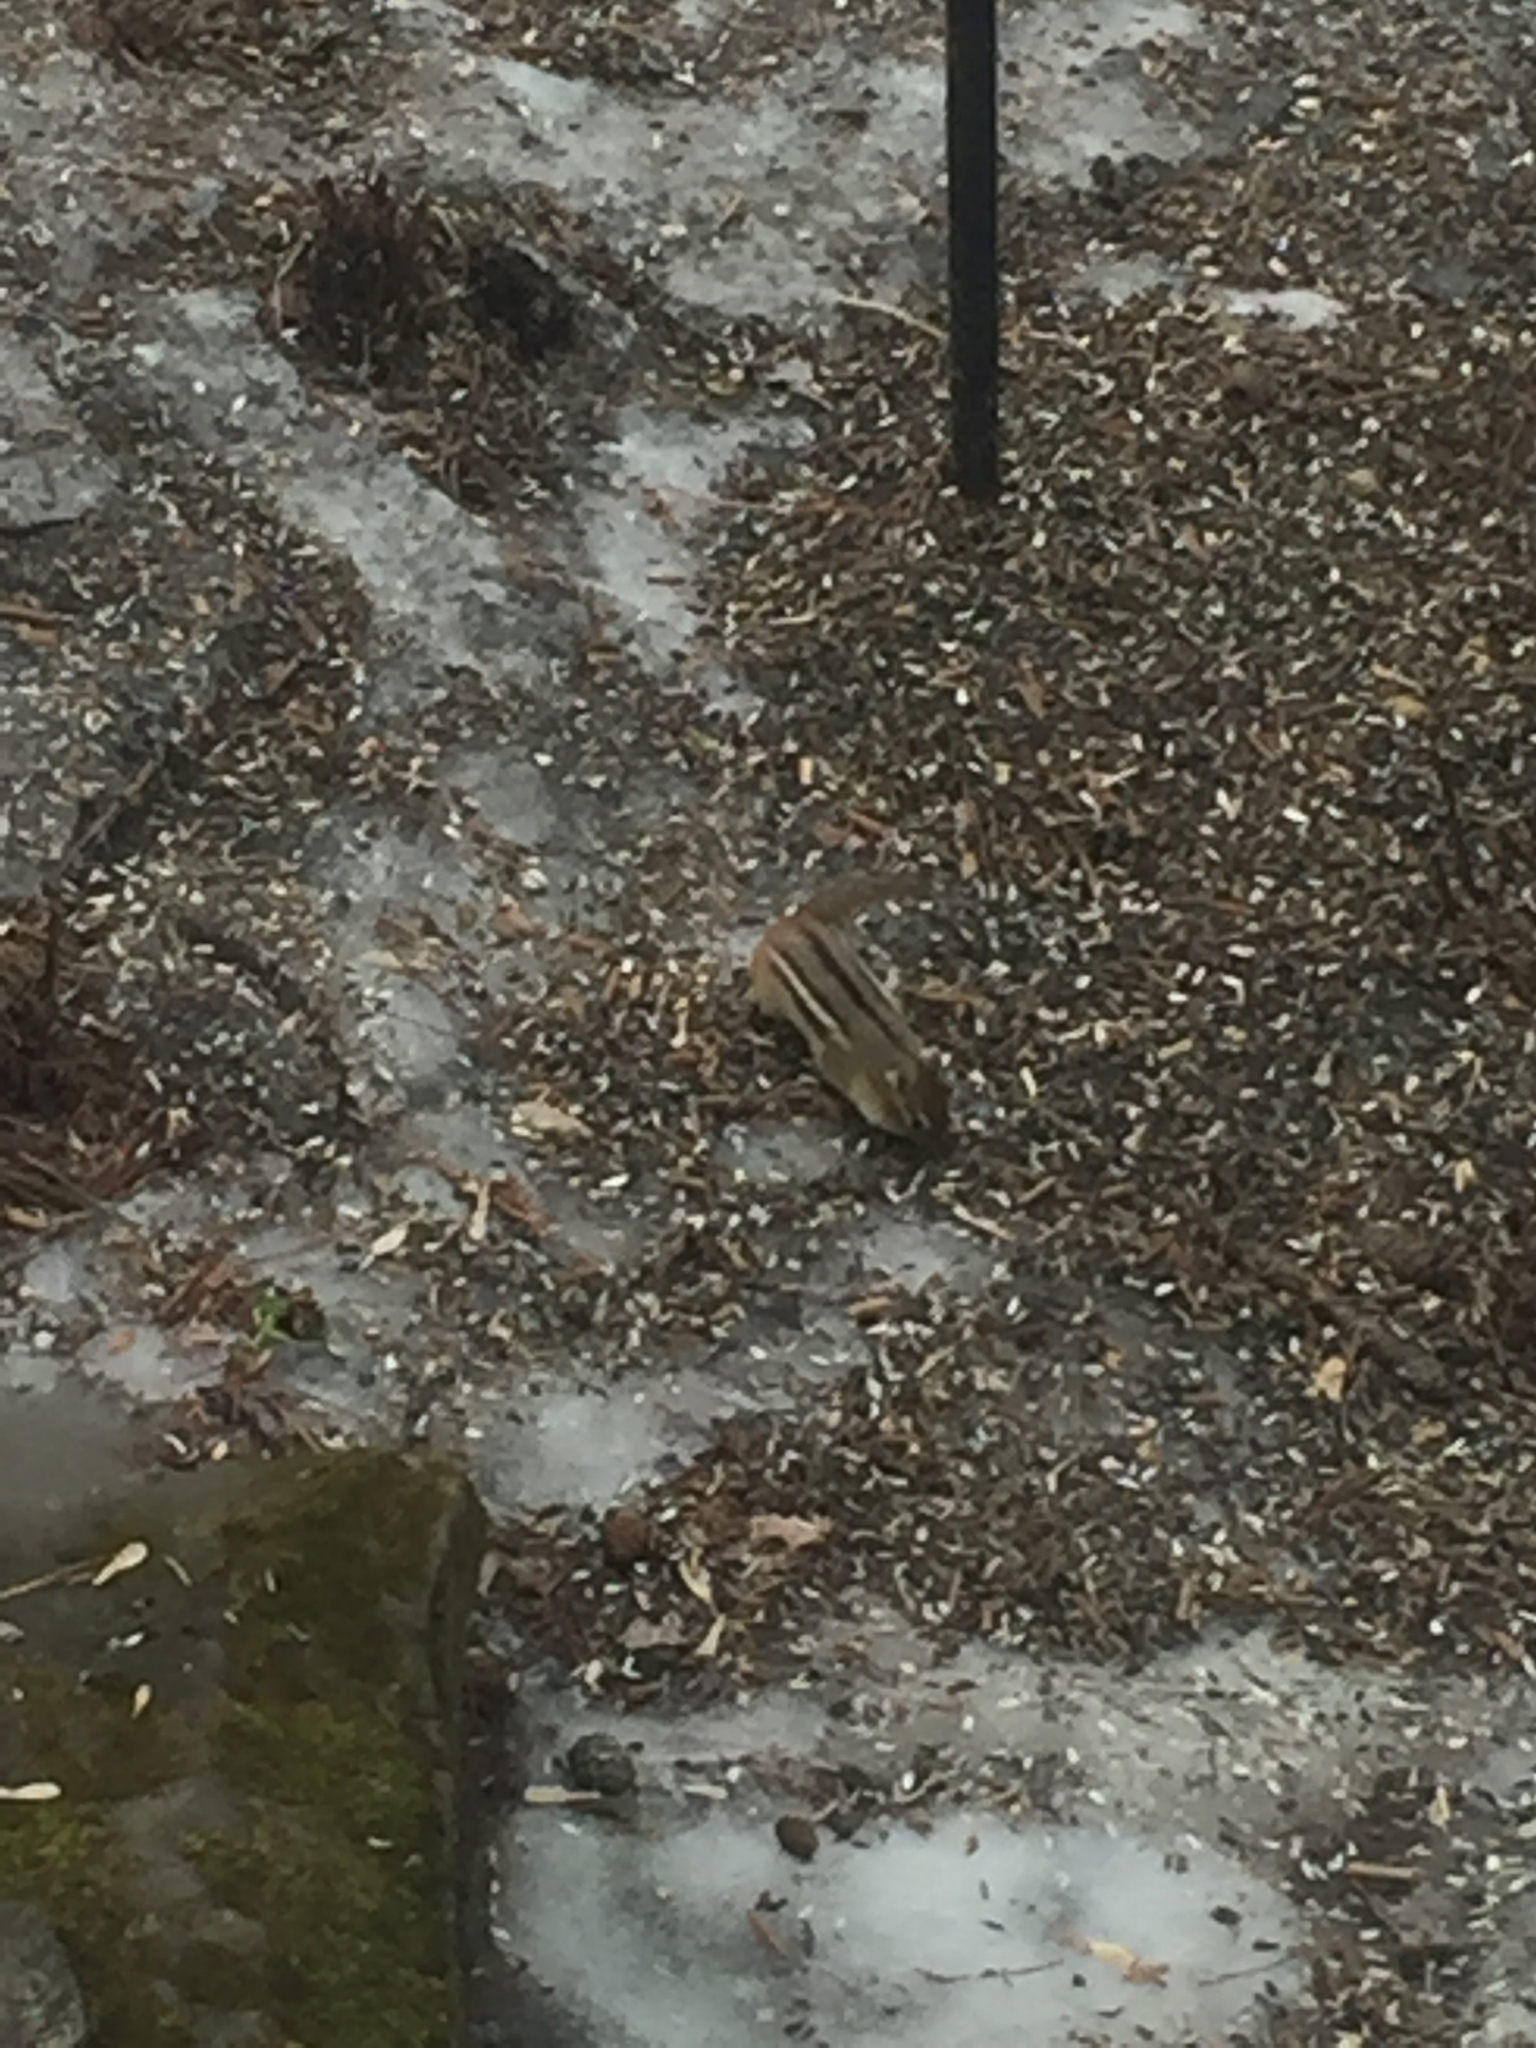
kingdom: Animalia
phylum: Chordata
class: Mammalia
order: Rodentia
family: Sciuridae
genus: Tamias
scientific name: Tamias striatus
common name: Eastern chipmunk
